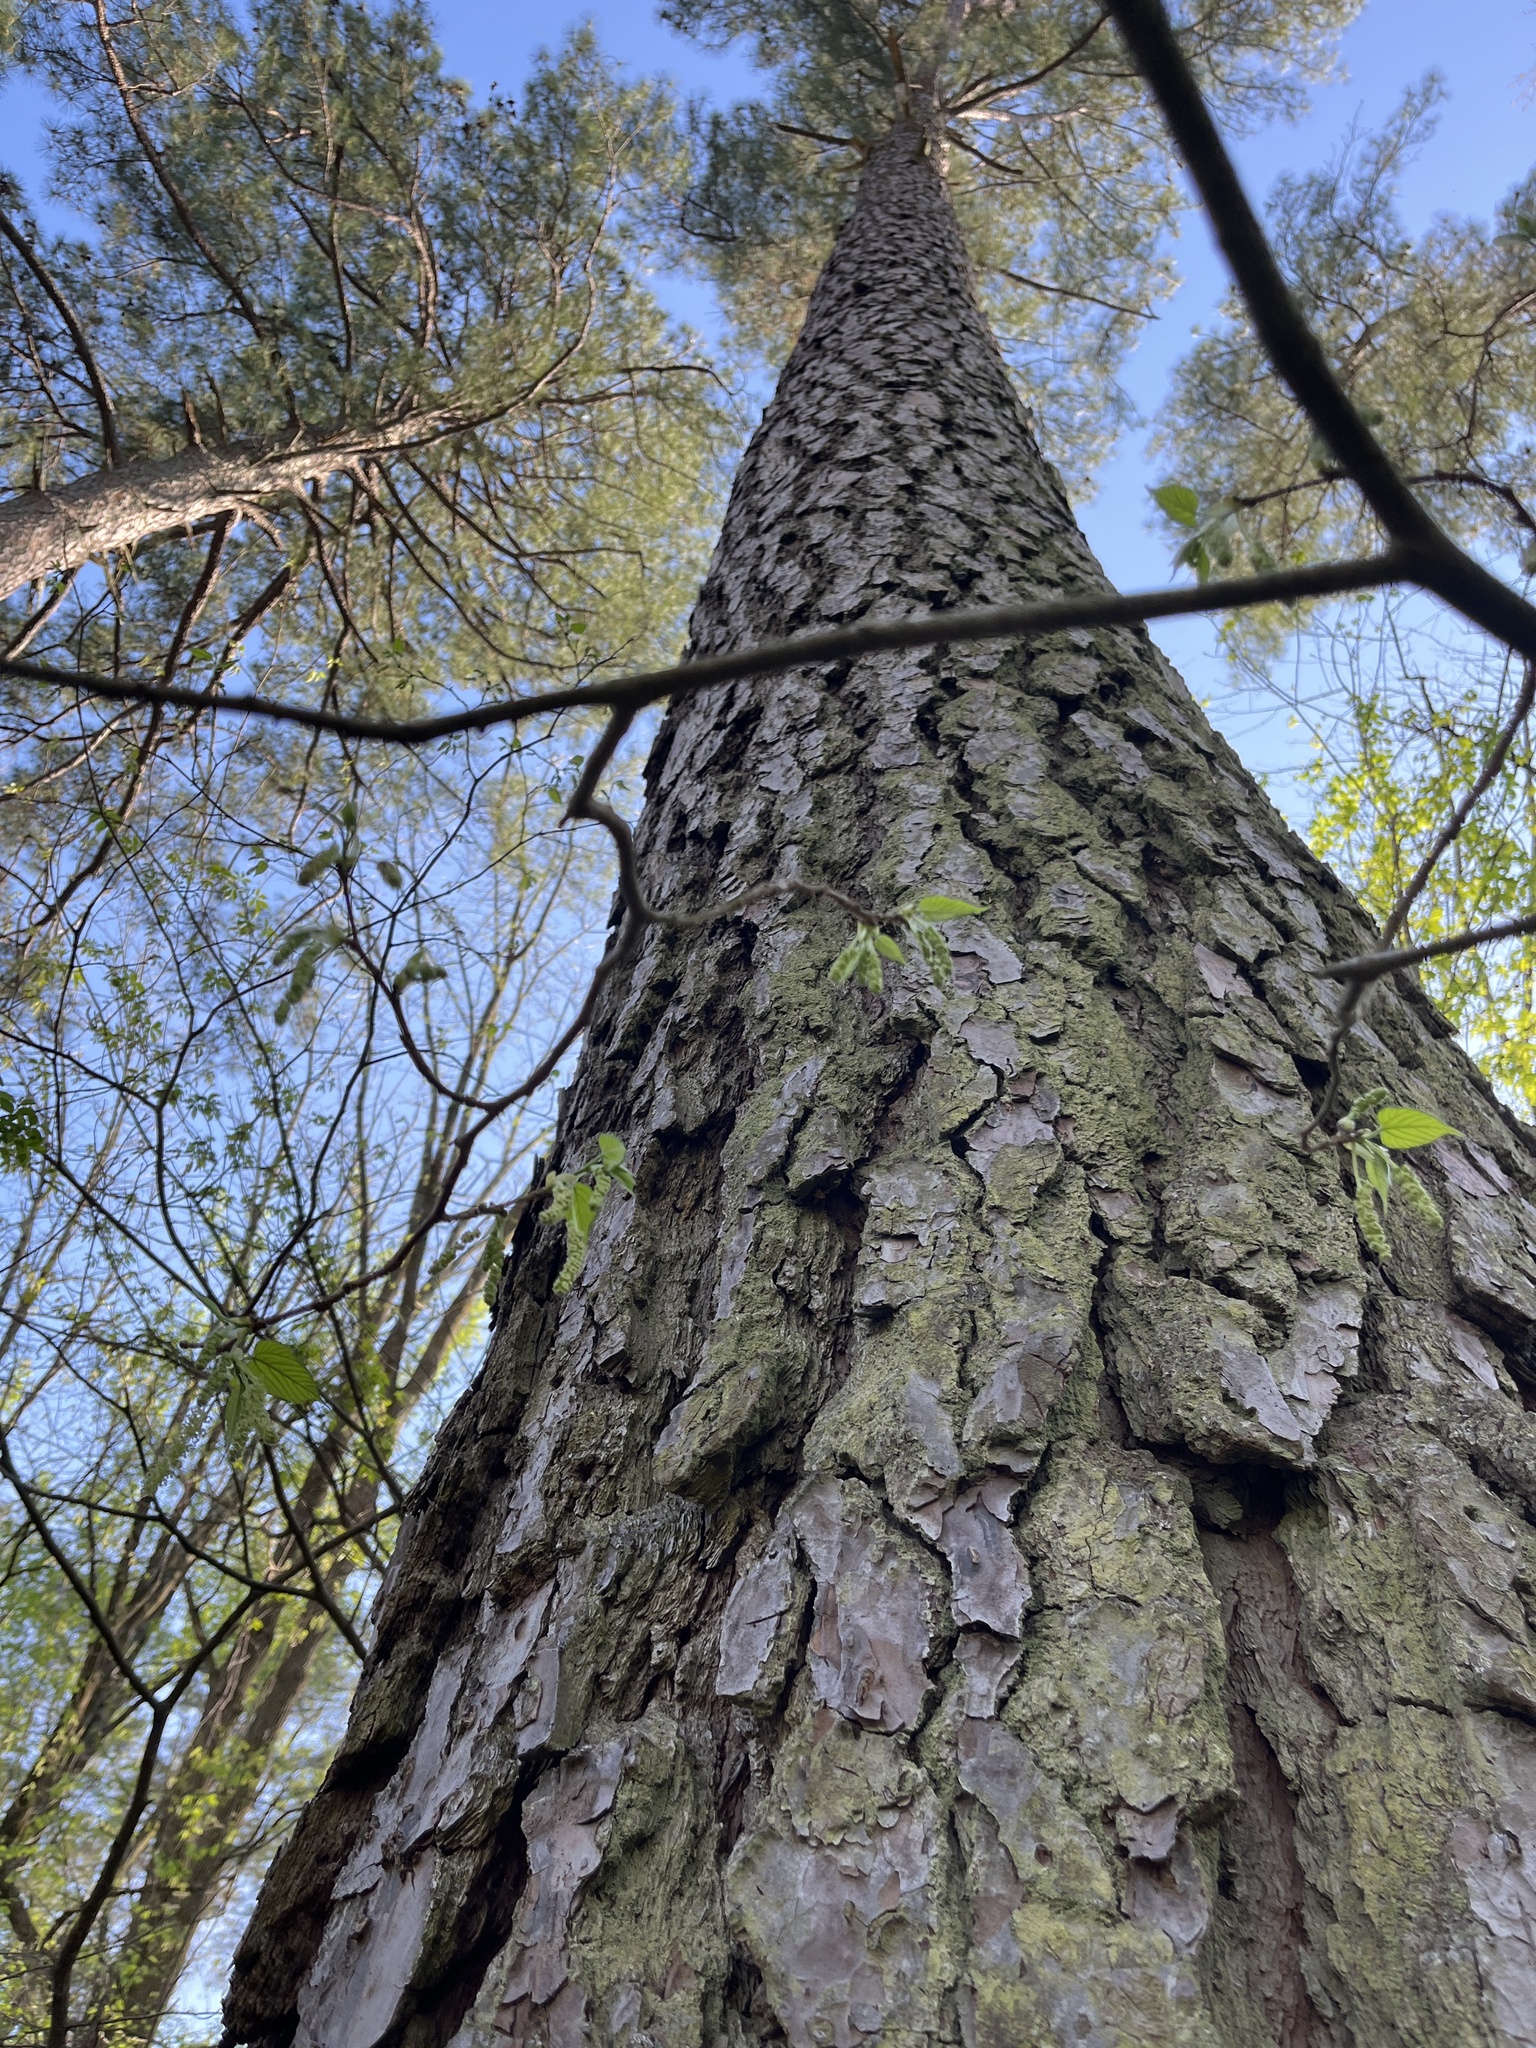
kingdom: Plantae
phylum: Tracheophyta
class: Pinopsida
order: Pinales
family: Pinaceae
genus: Pinus
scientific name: Pinus taeda
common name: Loblolly pine
